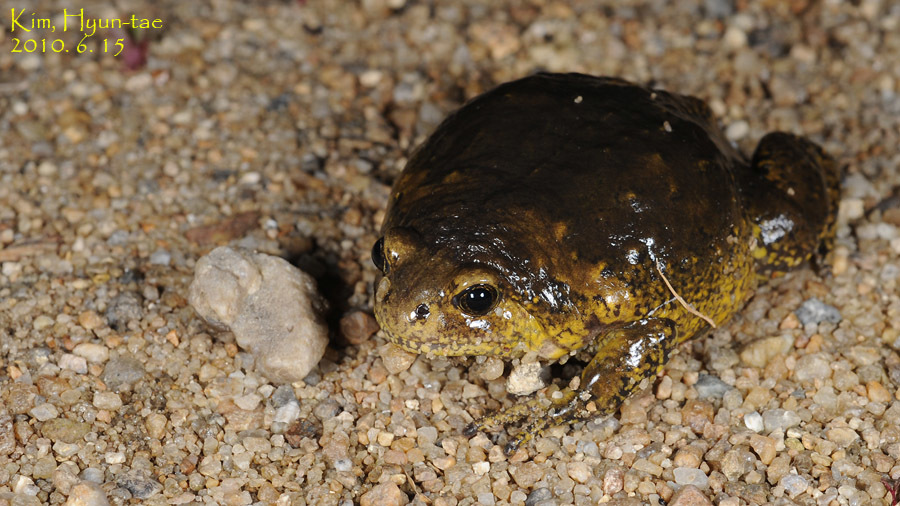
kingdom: Animalia
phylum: Chordata
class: Amphibia
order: Anura
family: Microhylidae
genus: Kaloula
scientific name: Kaloula borealis
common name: Boreal digging frog
